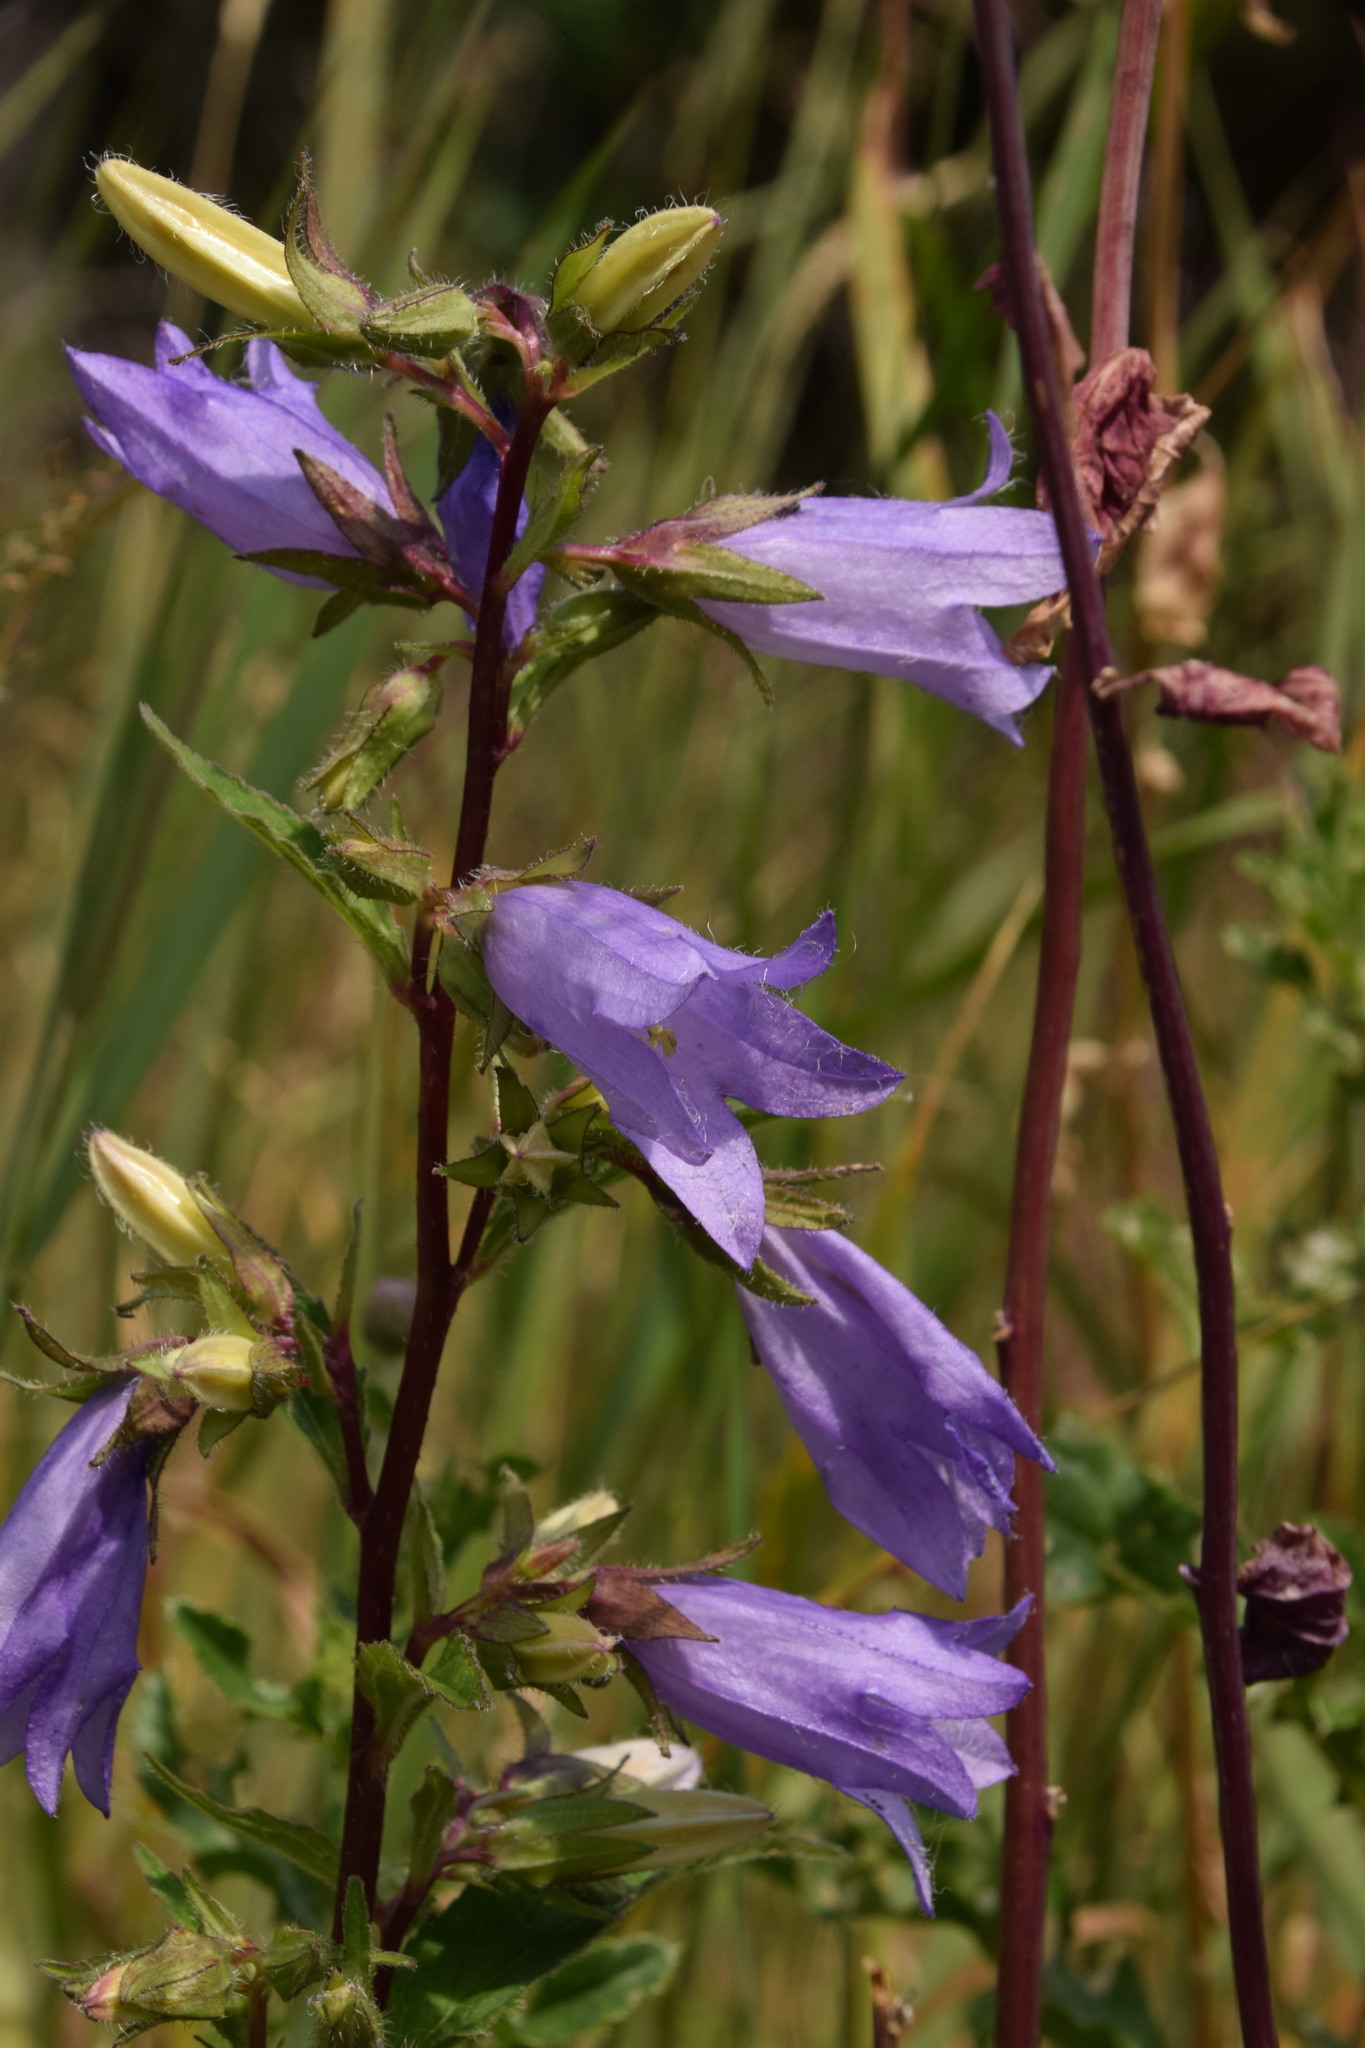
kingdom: Plantae
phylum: Tracheophyta
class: Magnoliopsida
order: Asterales
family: Campanulaceae
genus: Campanula
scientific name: Campanula trachelium
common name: Nettle-leaved bellflower
